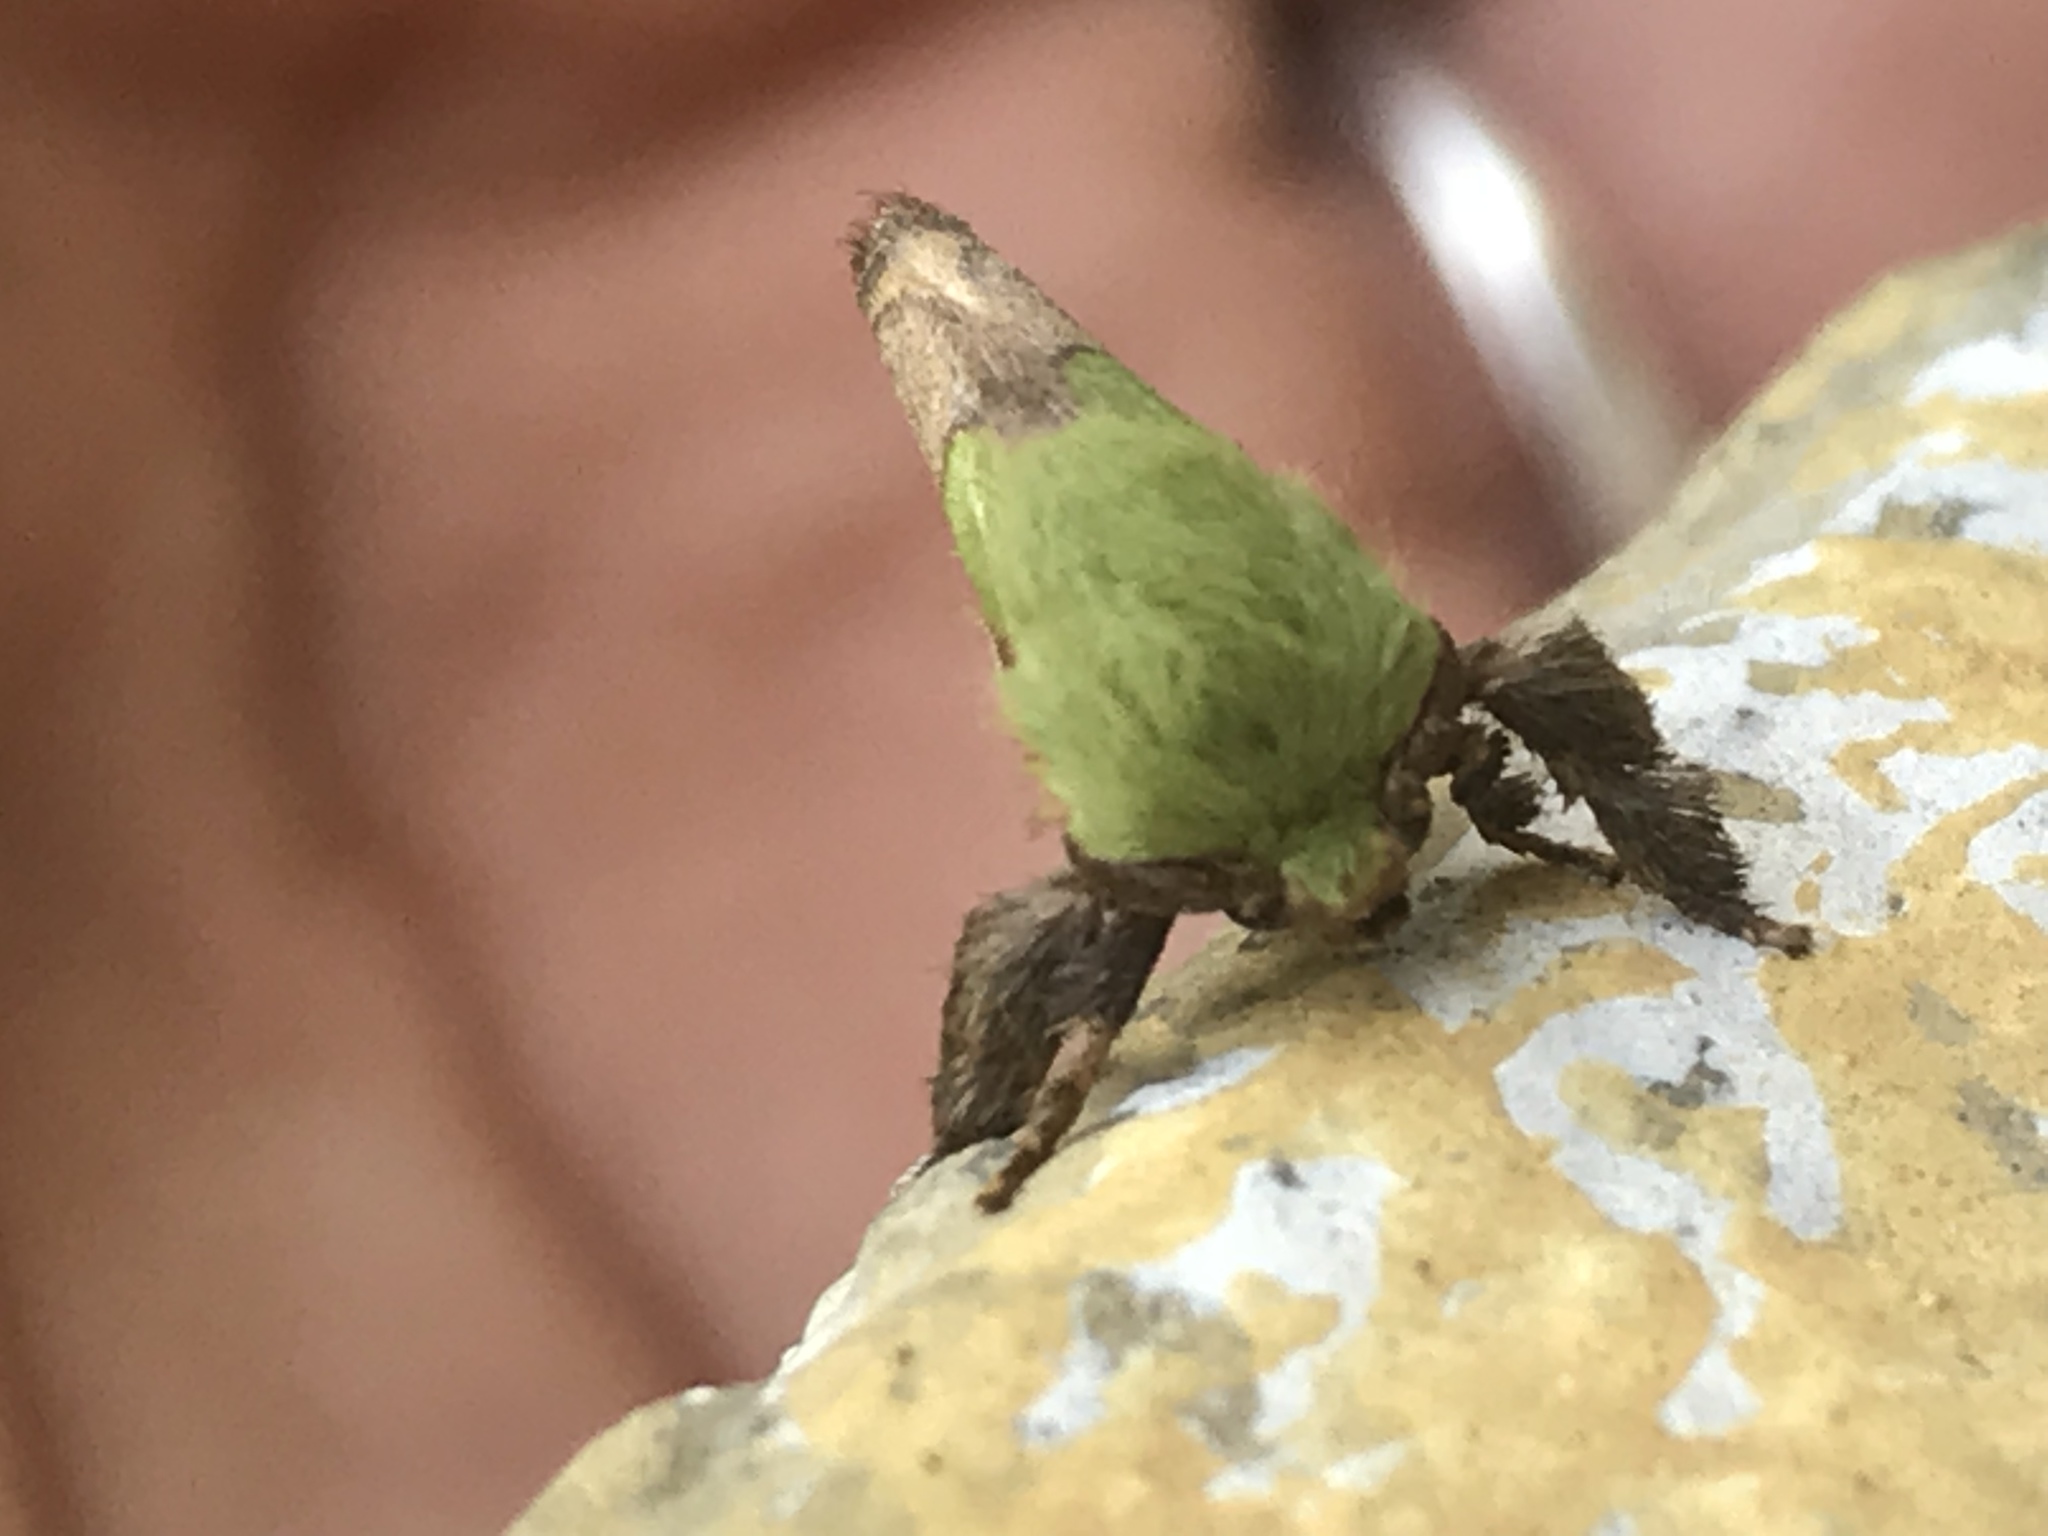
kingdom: Animalia
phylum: Arthropoda
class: Insecta
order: Lepidoptera
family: Limacodidae
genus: Parasa
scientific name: Parasa chloris
